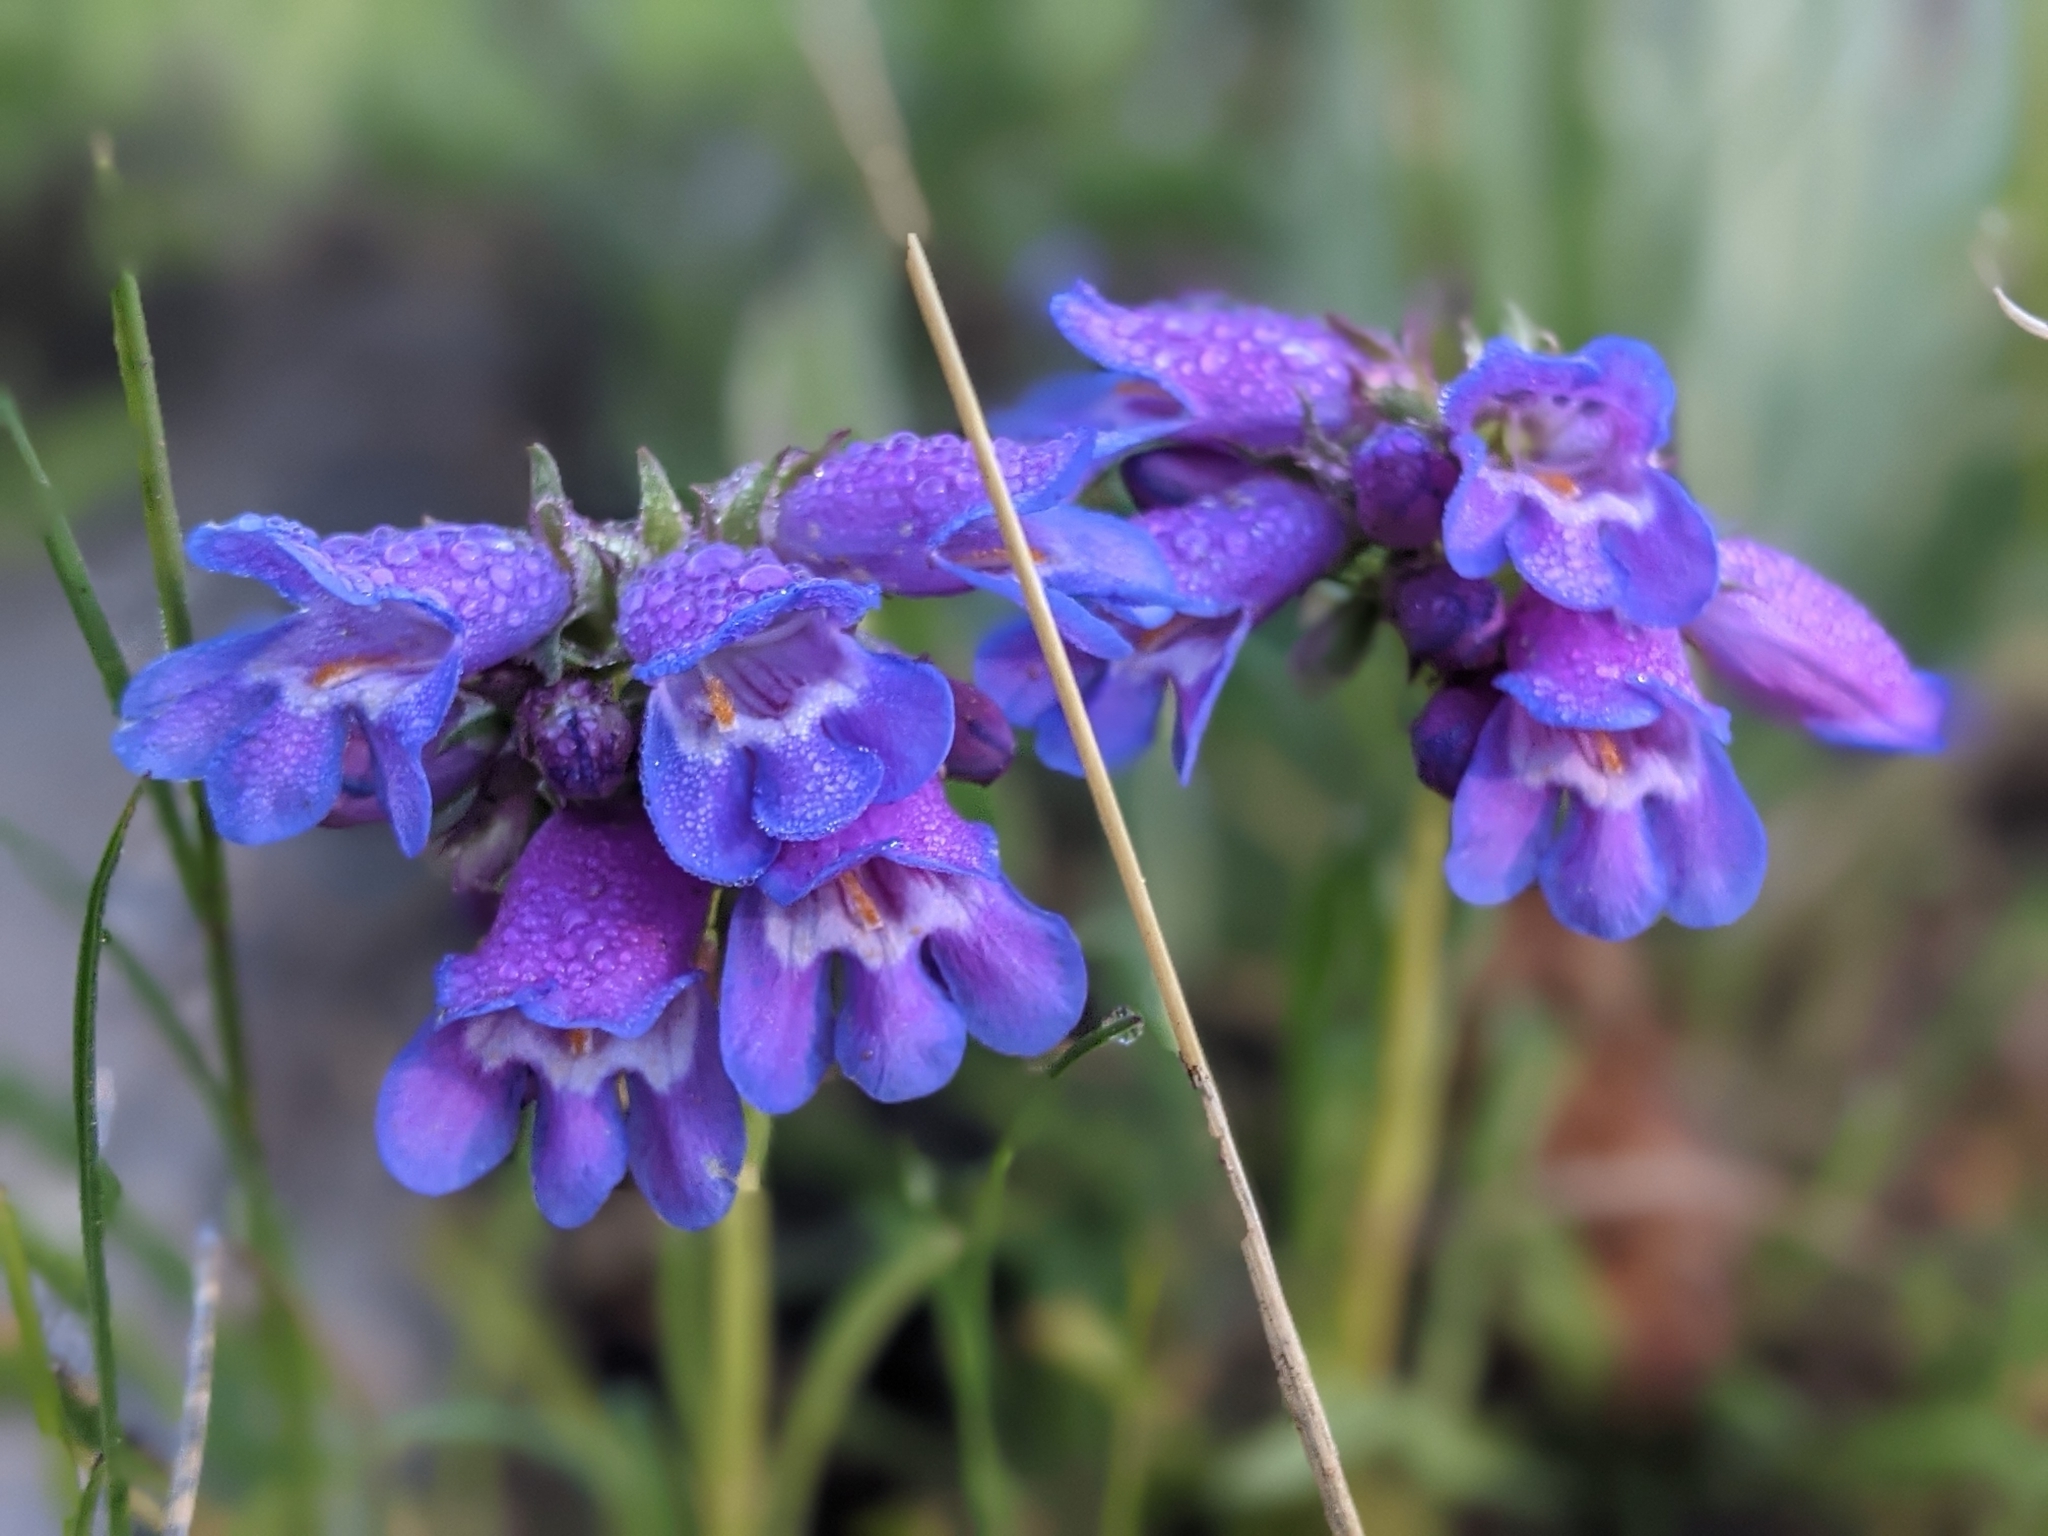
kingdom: Plantae
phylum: Tracheophyta
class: Magnoliopsida
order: Lamiales
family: Plantaginaceae
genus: Penstemon
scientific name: Penstemon hallii
